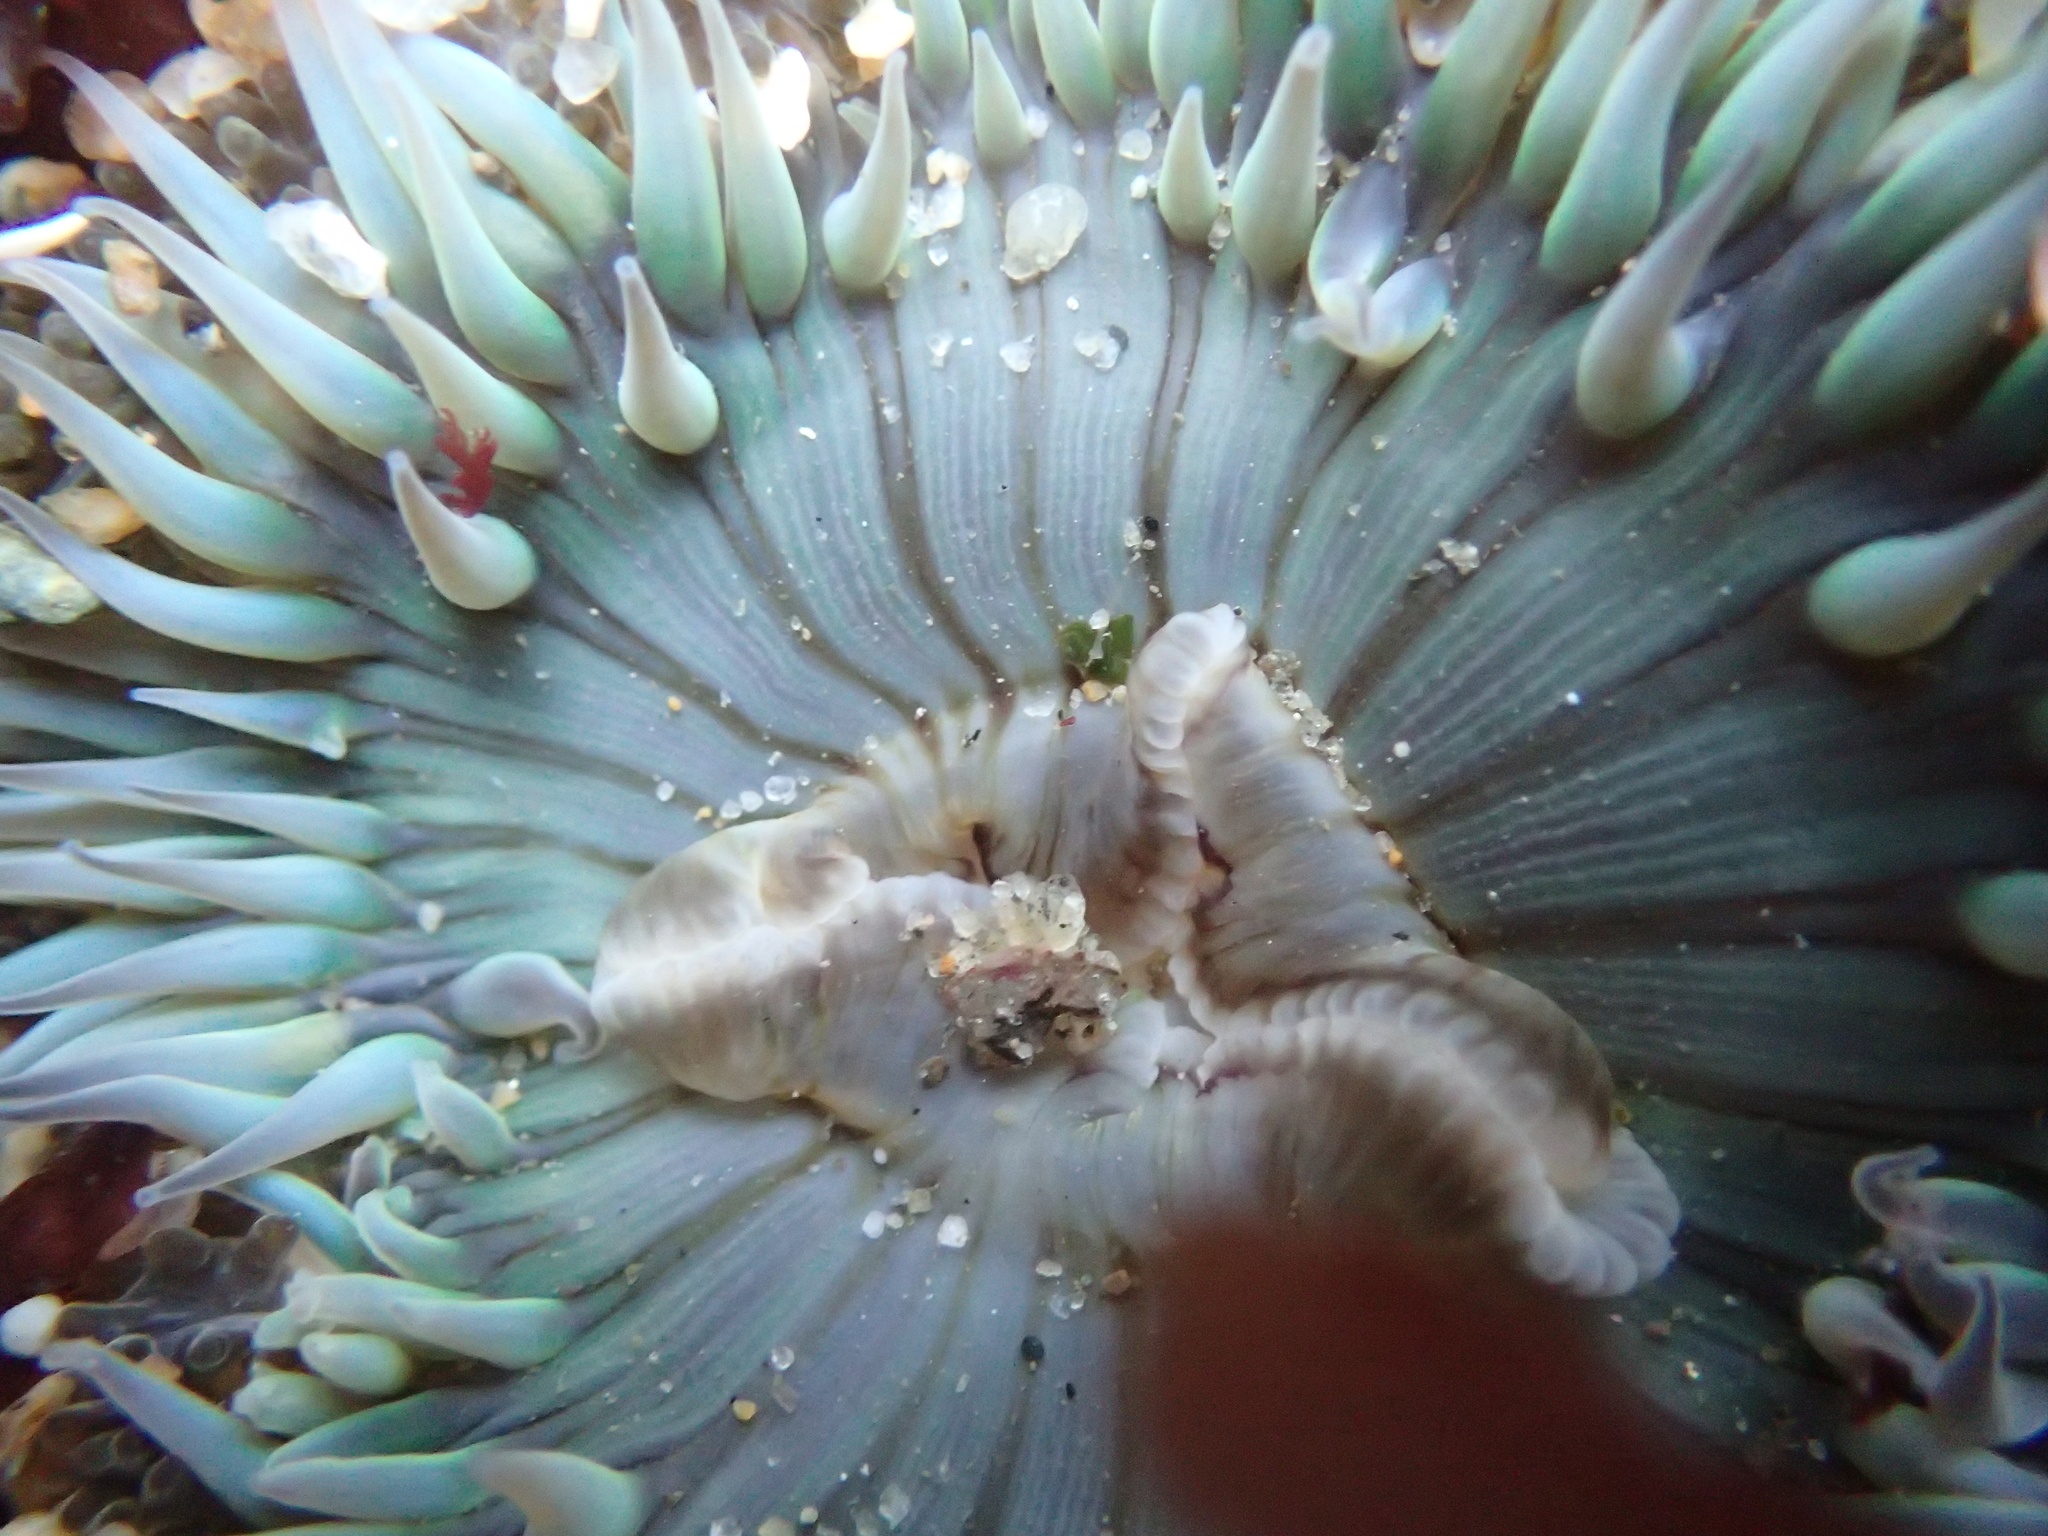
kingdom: Animalia
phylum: Cnidaria
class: Anthozoa
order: Actiniaria
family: Actiniidae
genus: Anthopleura
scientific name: Anthopleura sola
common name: Sun anemone
